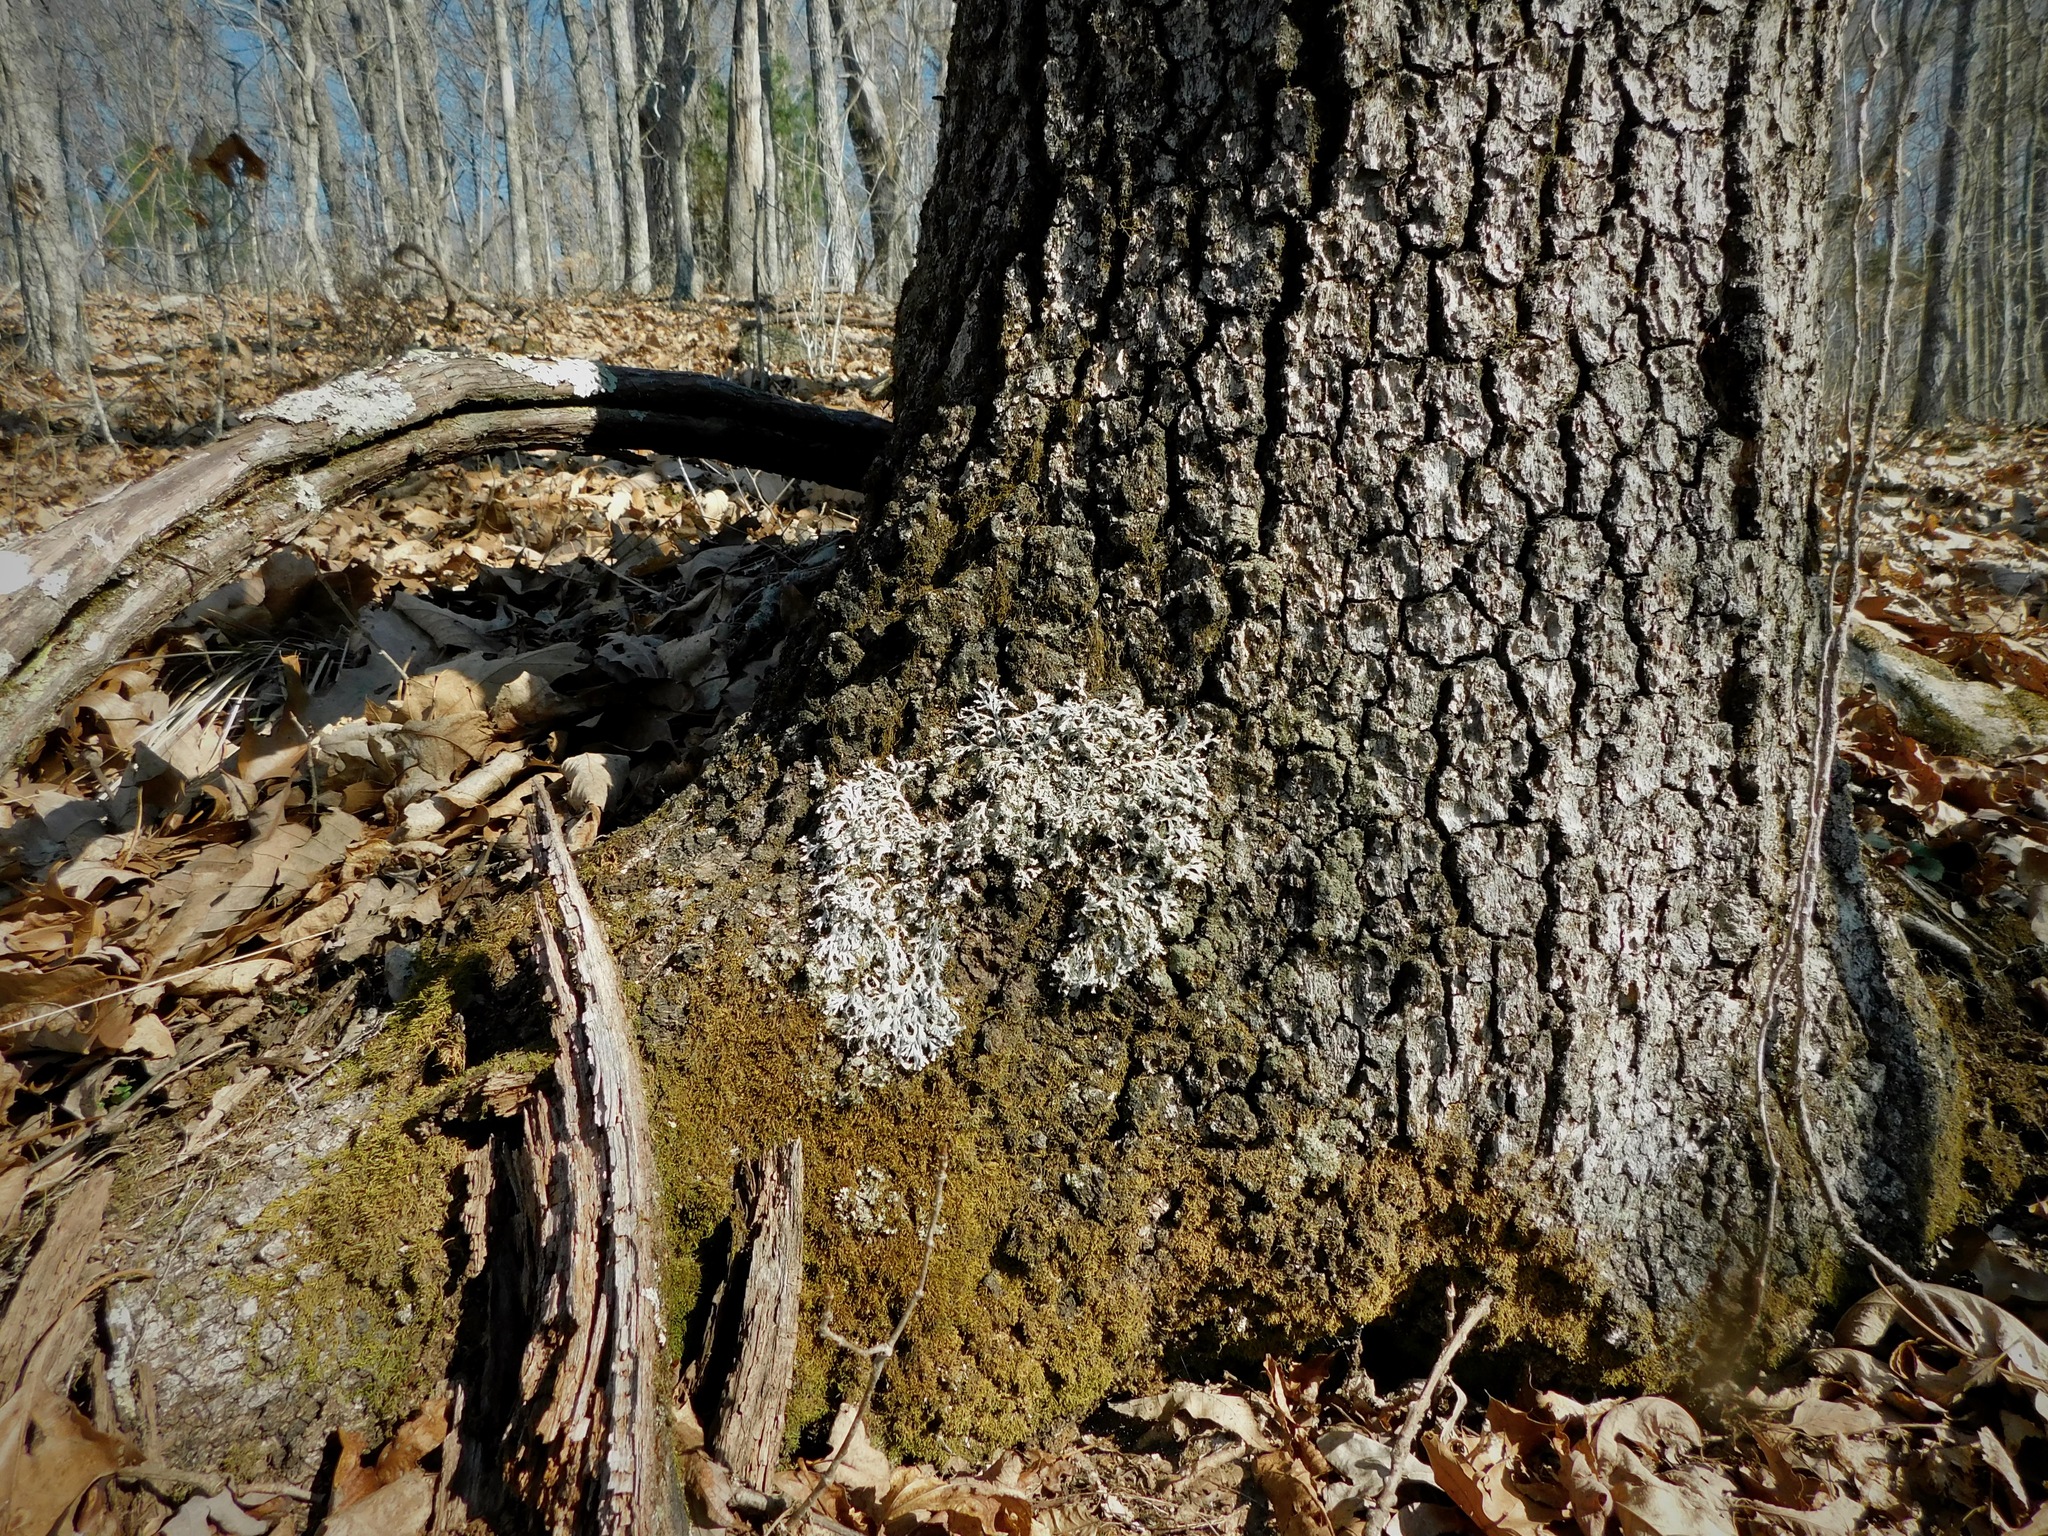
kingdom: Fungi
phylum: Ascomycota
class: Lecanoromycetes
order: Caliciales
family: Physciaceae
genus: Leucodermia
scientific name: Leucodermia appalachensis
